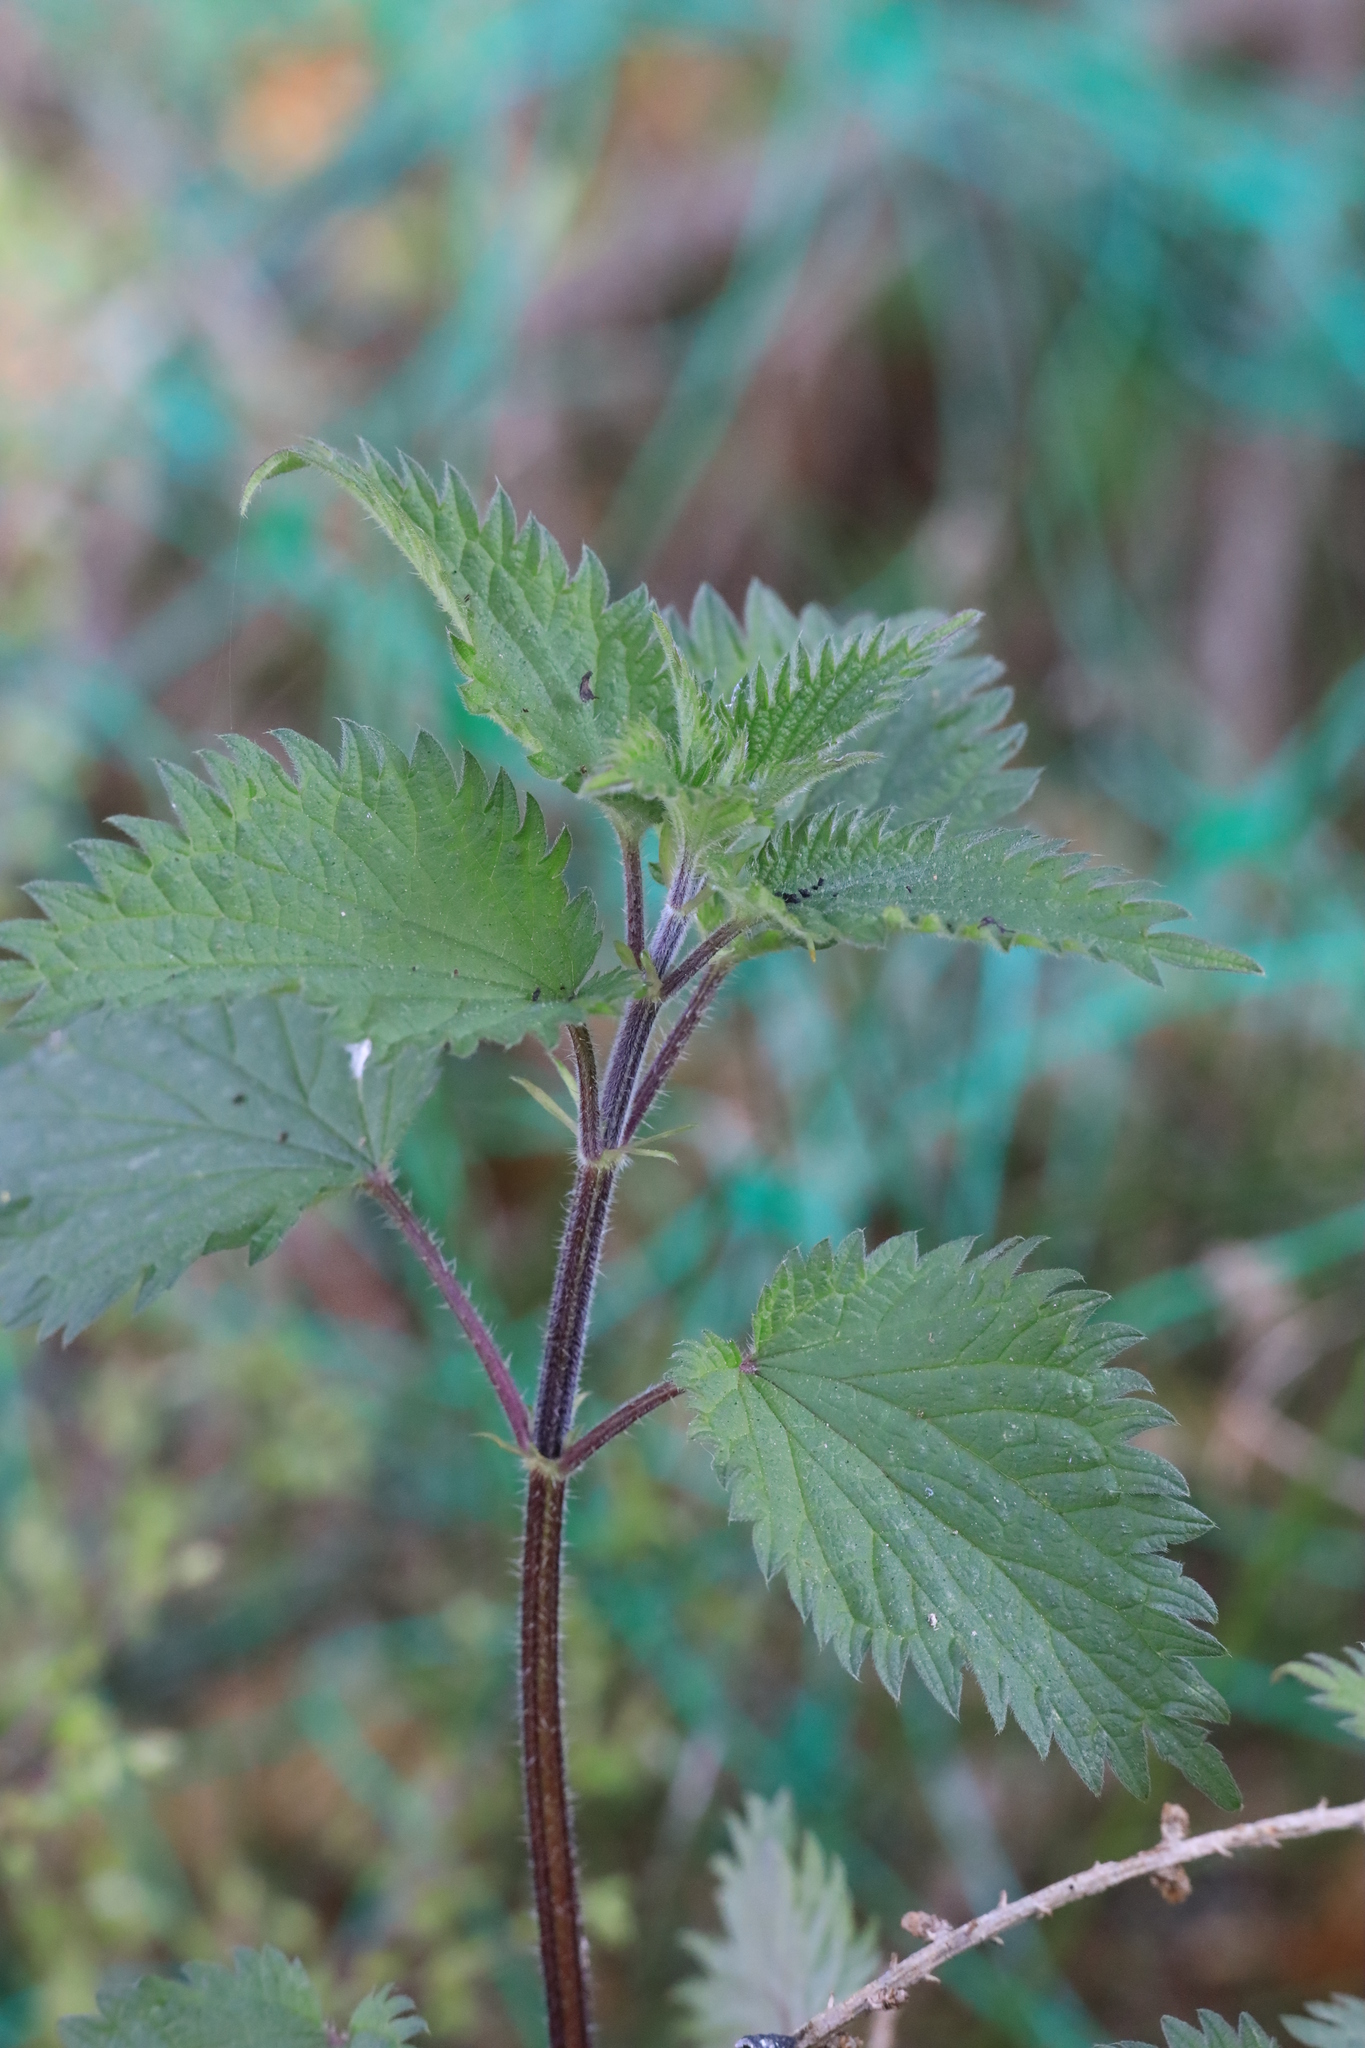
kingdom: Plantae
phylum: Tracheophyta
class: Magnoliopsida
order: Rosales
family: Urticaceae
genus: Urtica
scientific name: Urtica dioica
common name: Common nettle
